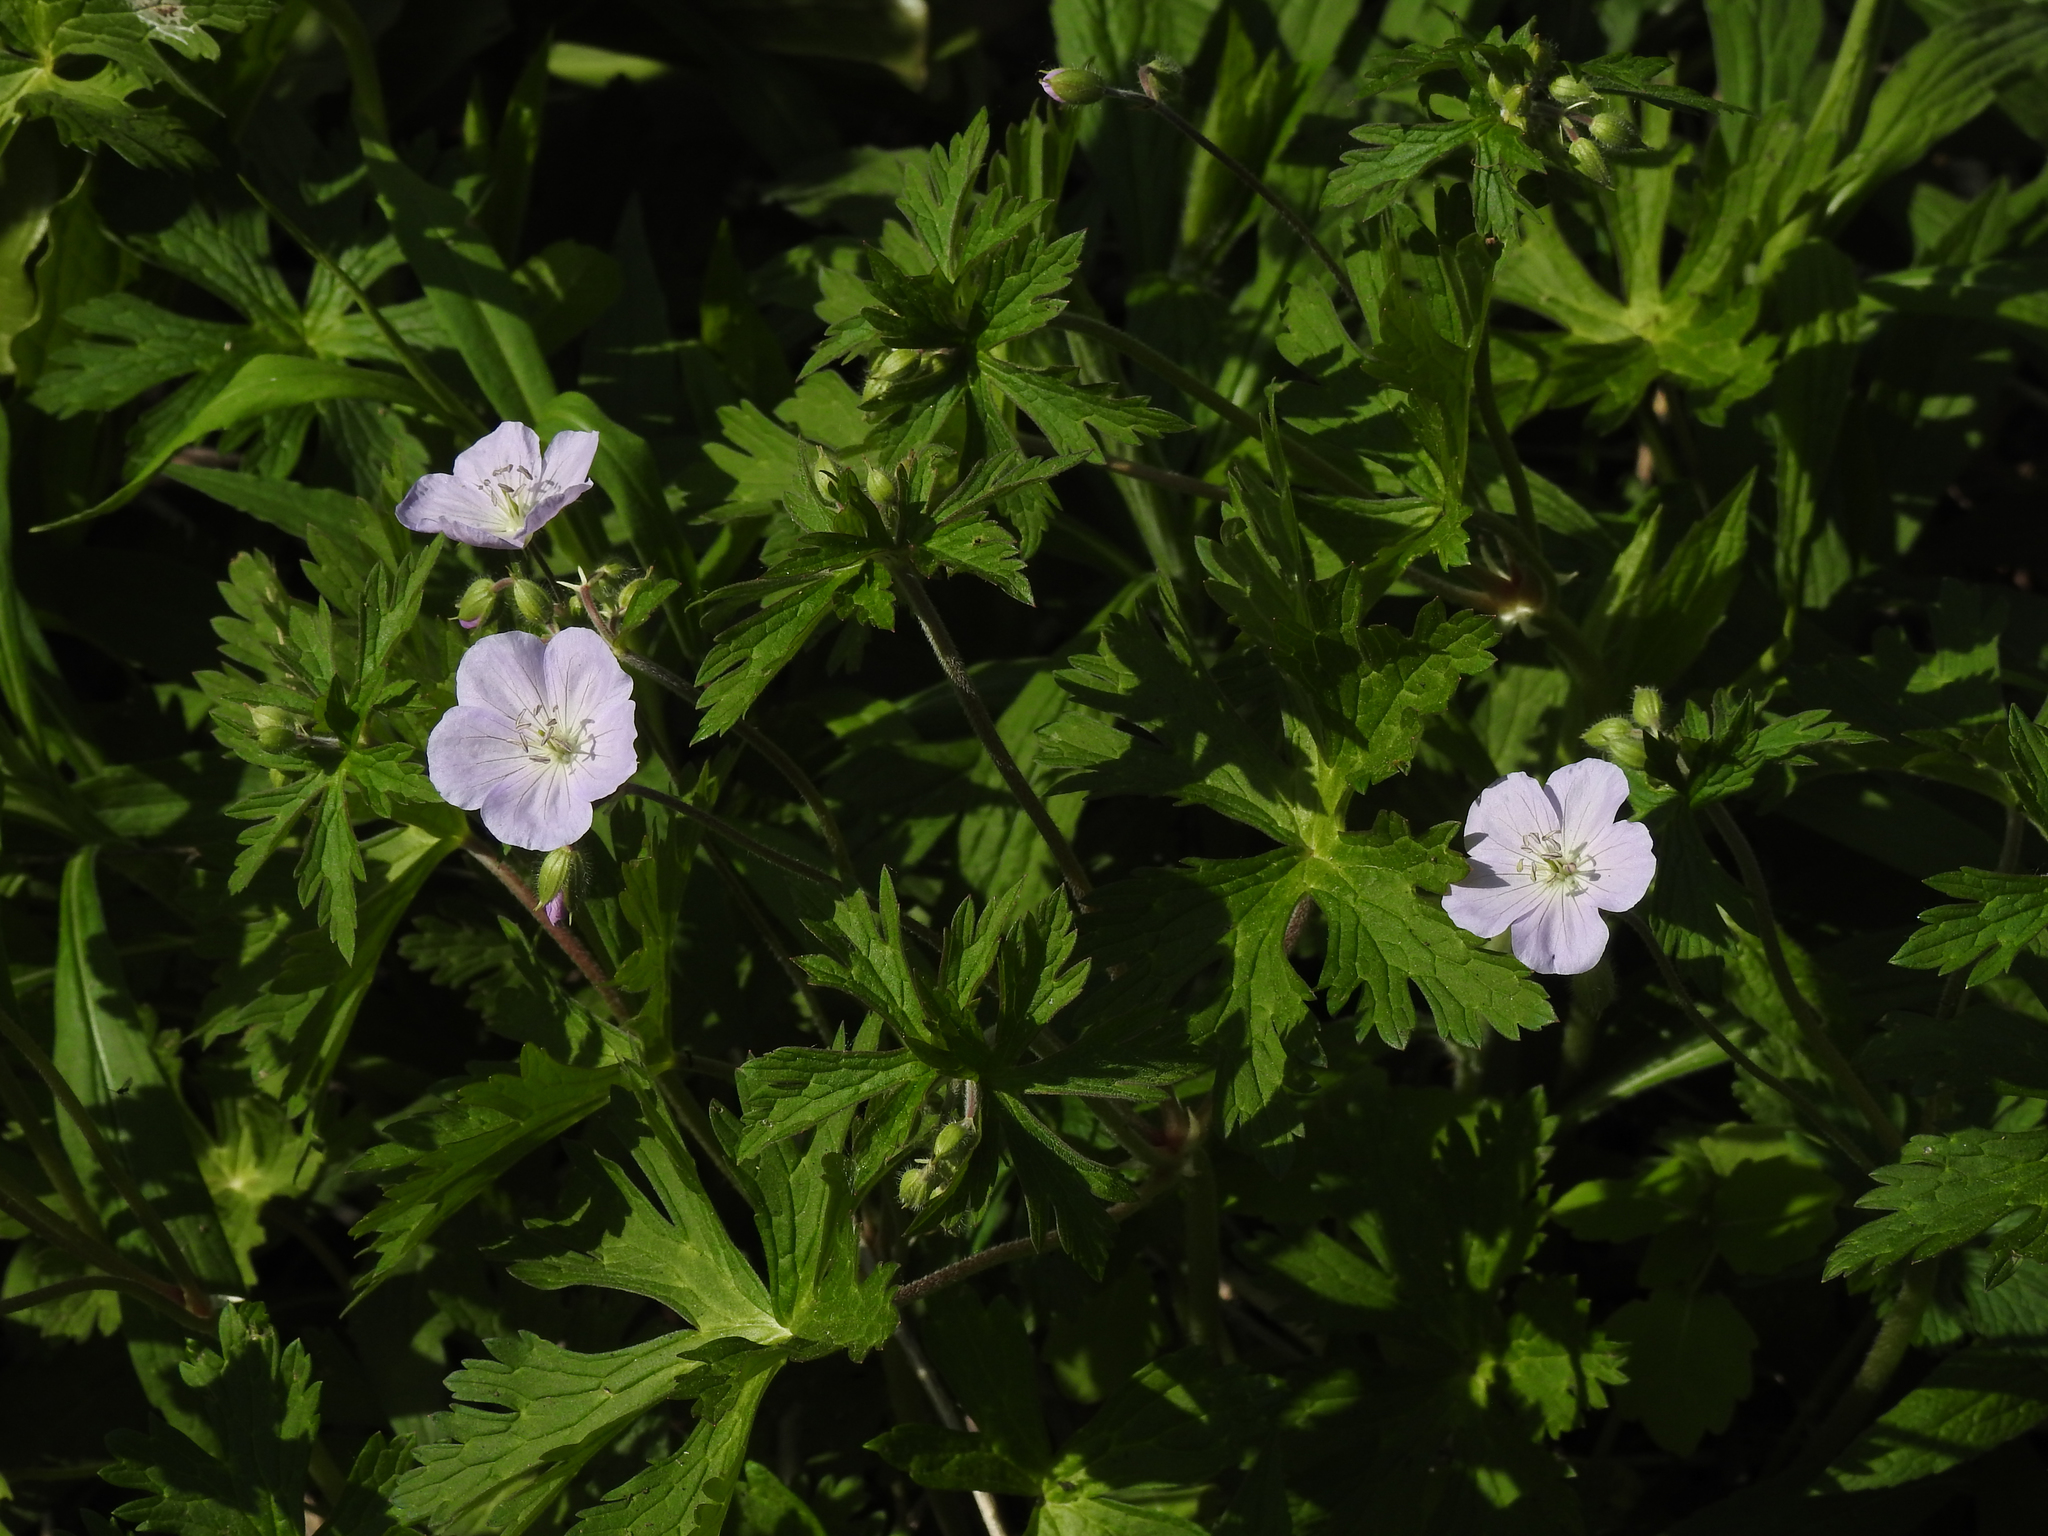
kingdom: Plantae
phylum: Tracheophyta
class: Magnoliopsida
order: Geraniales
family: Geraniaceae
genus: Geranium
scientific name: Geranium maculatum
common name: Spotted geranium
